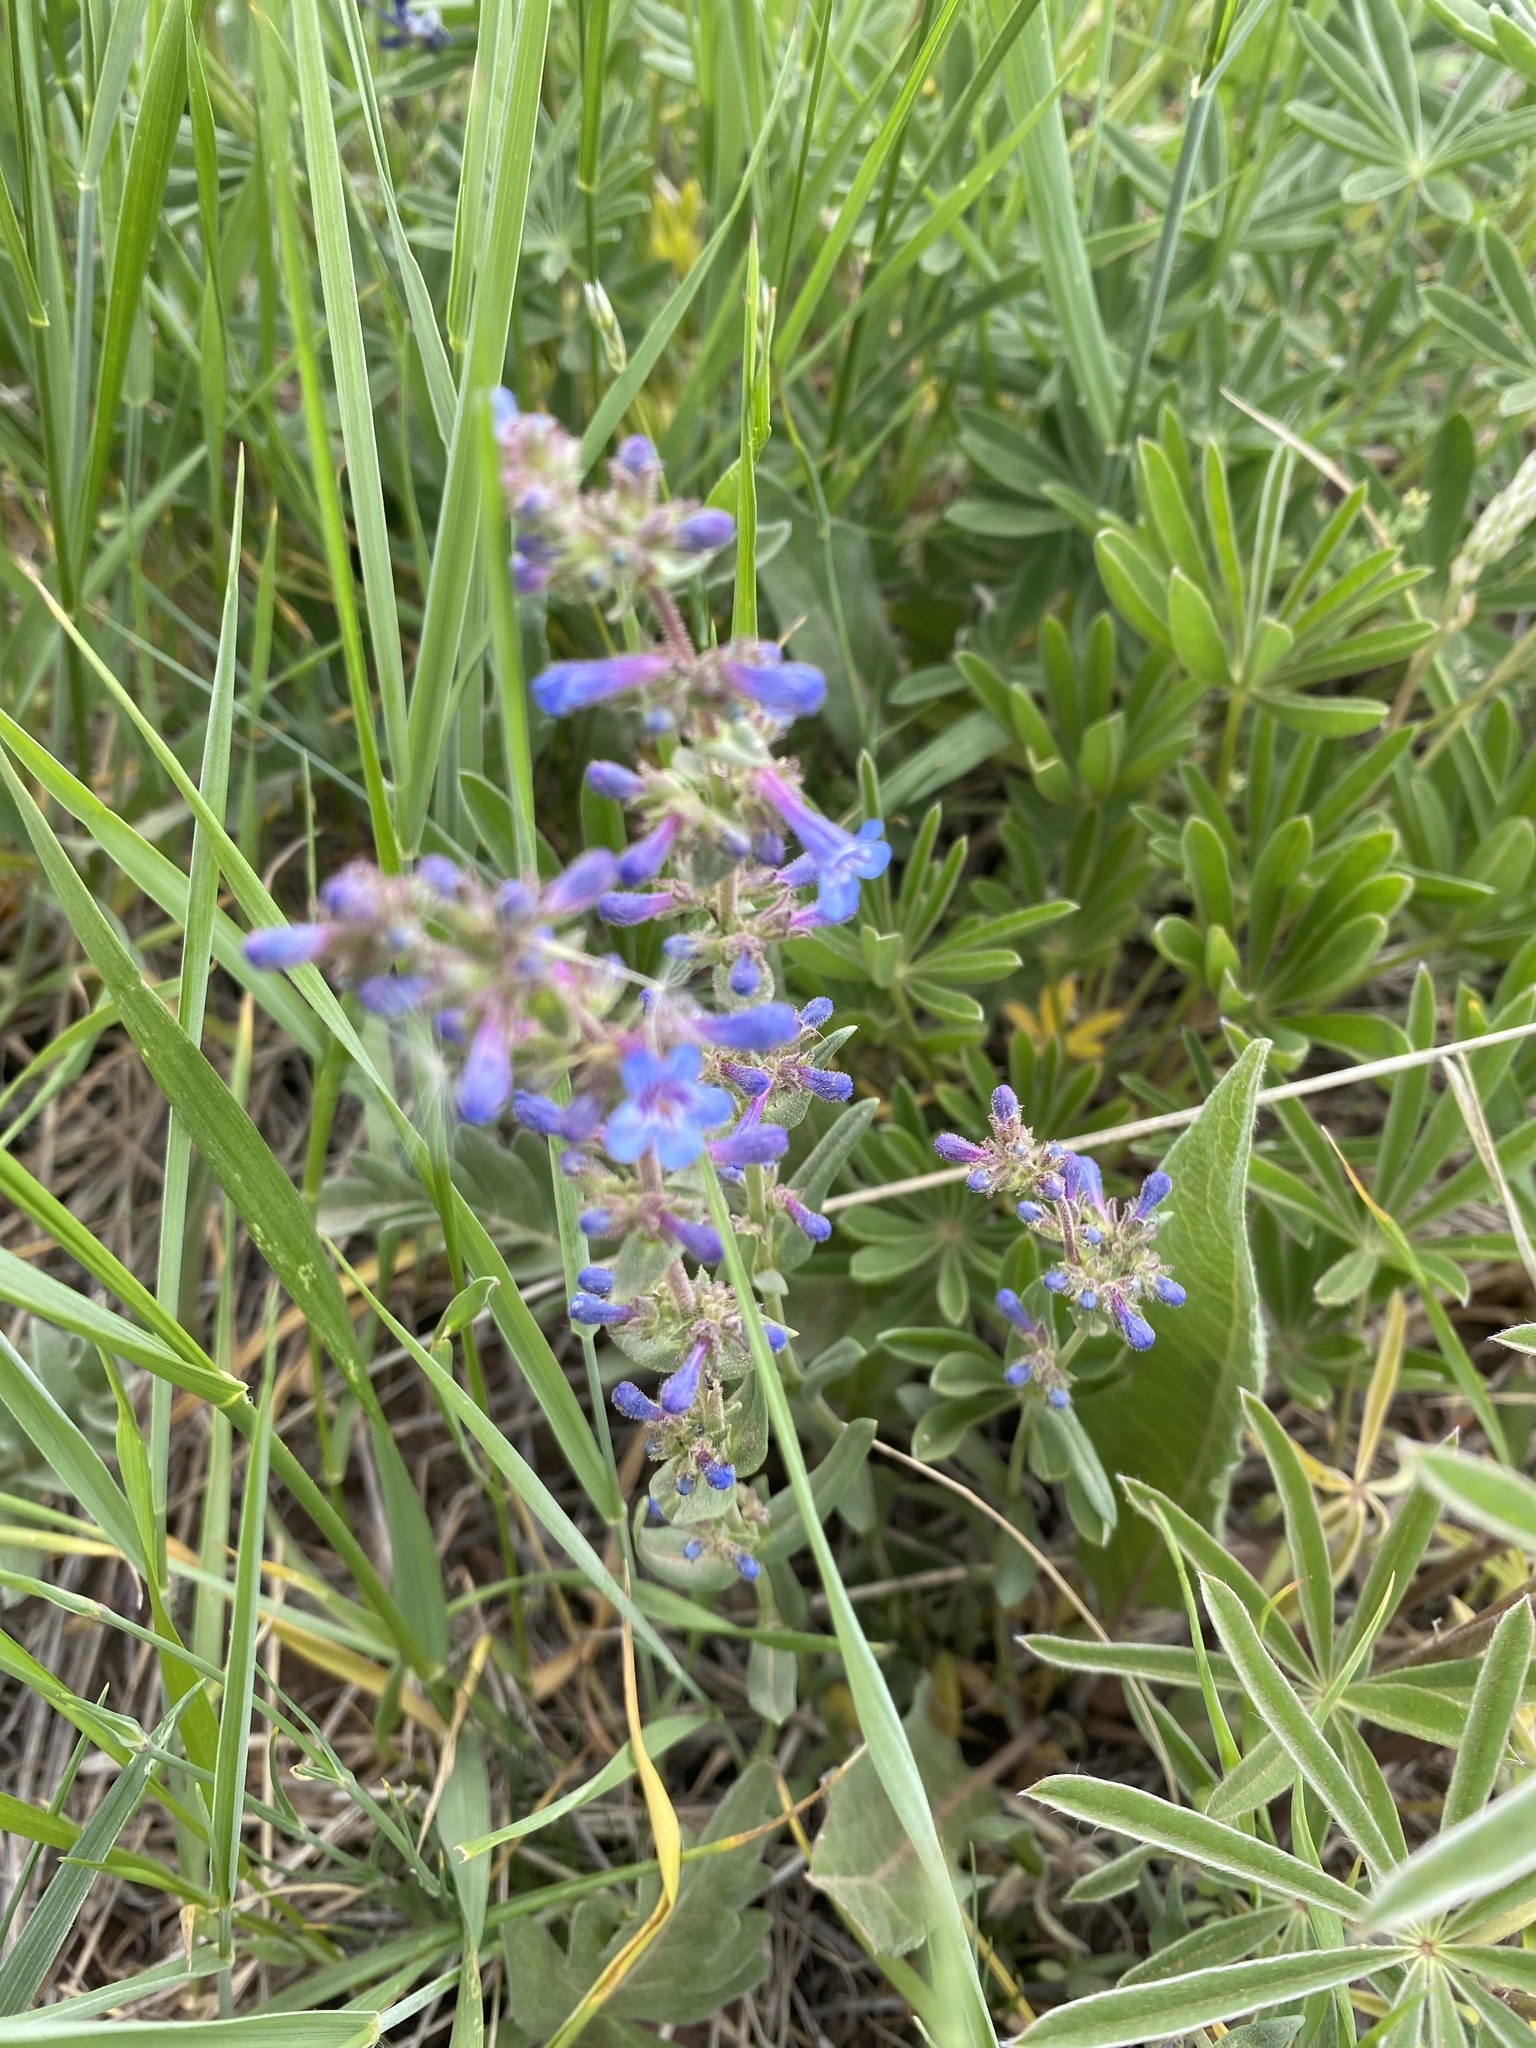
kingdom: Plantae
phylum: Tracheophyta
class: Magnoliopsida
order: Lamiales
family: Plantaginaceae
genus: Penstemon
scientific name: Penstemon humilis
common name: Low penstemon
